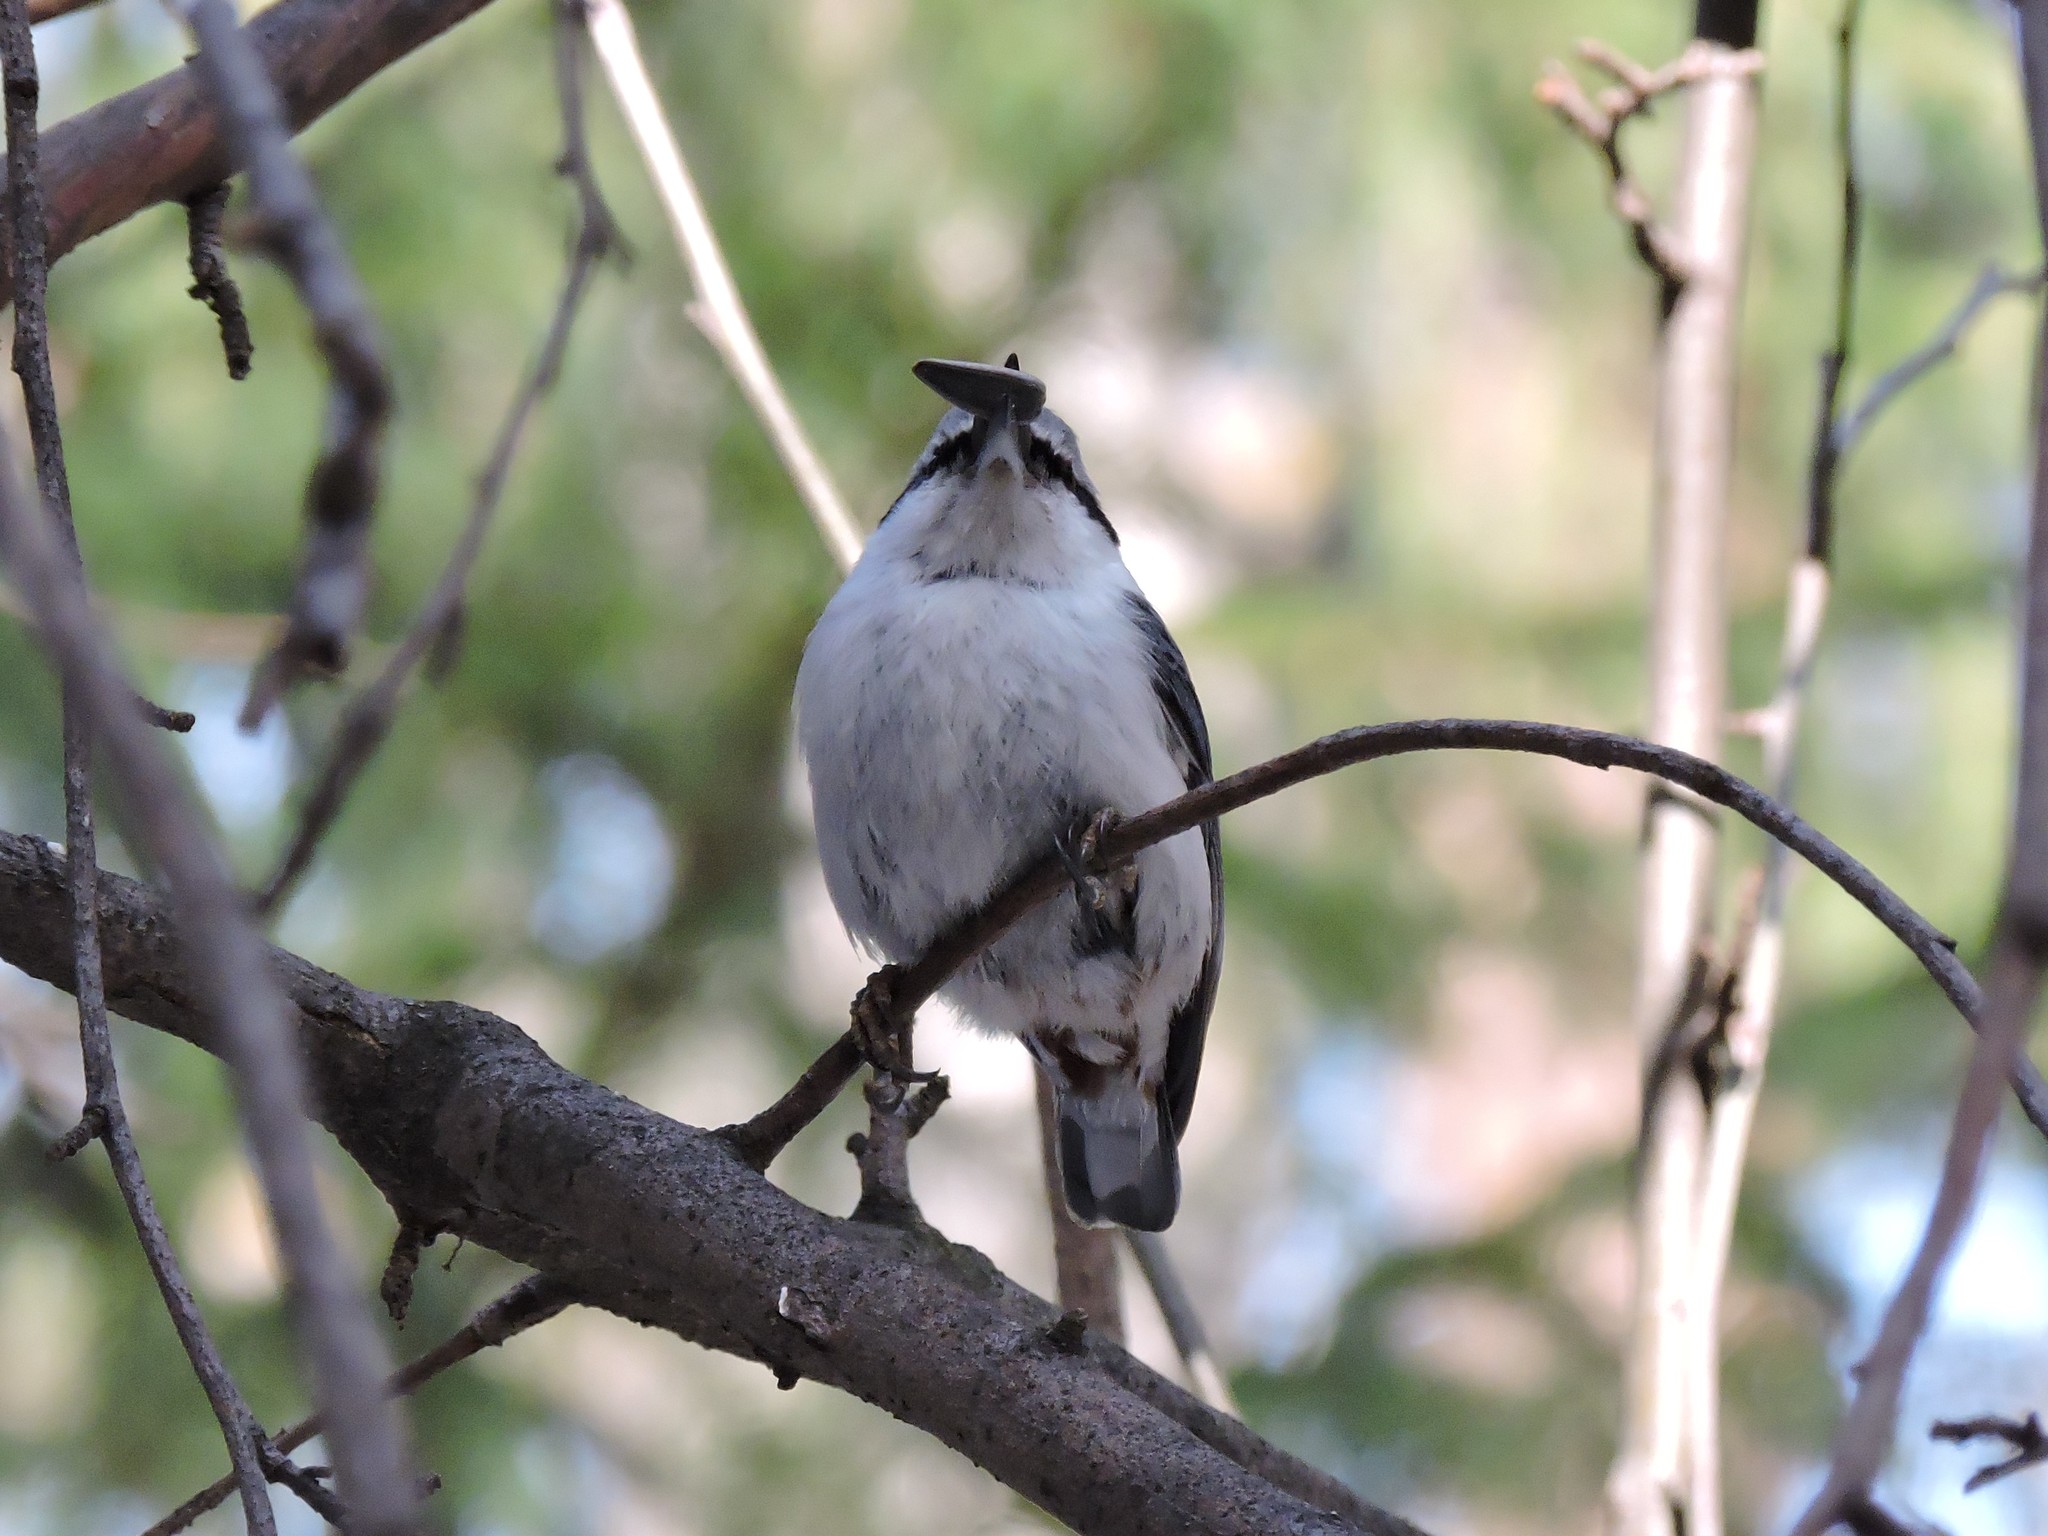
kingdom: Animalia
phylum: Chordata
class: Aves
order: Passeriformes
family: Sittidae
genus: Sitta
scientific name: Sitta europaea
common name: Eurasian nuthatch
